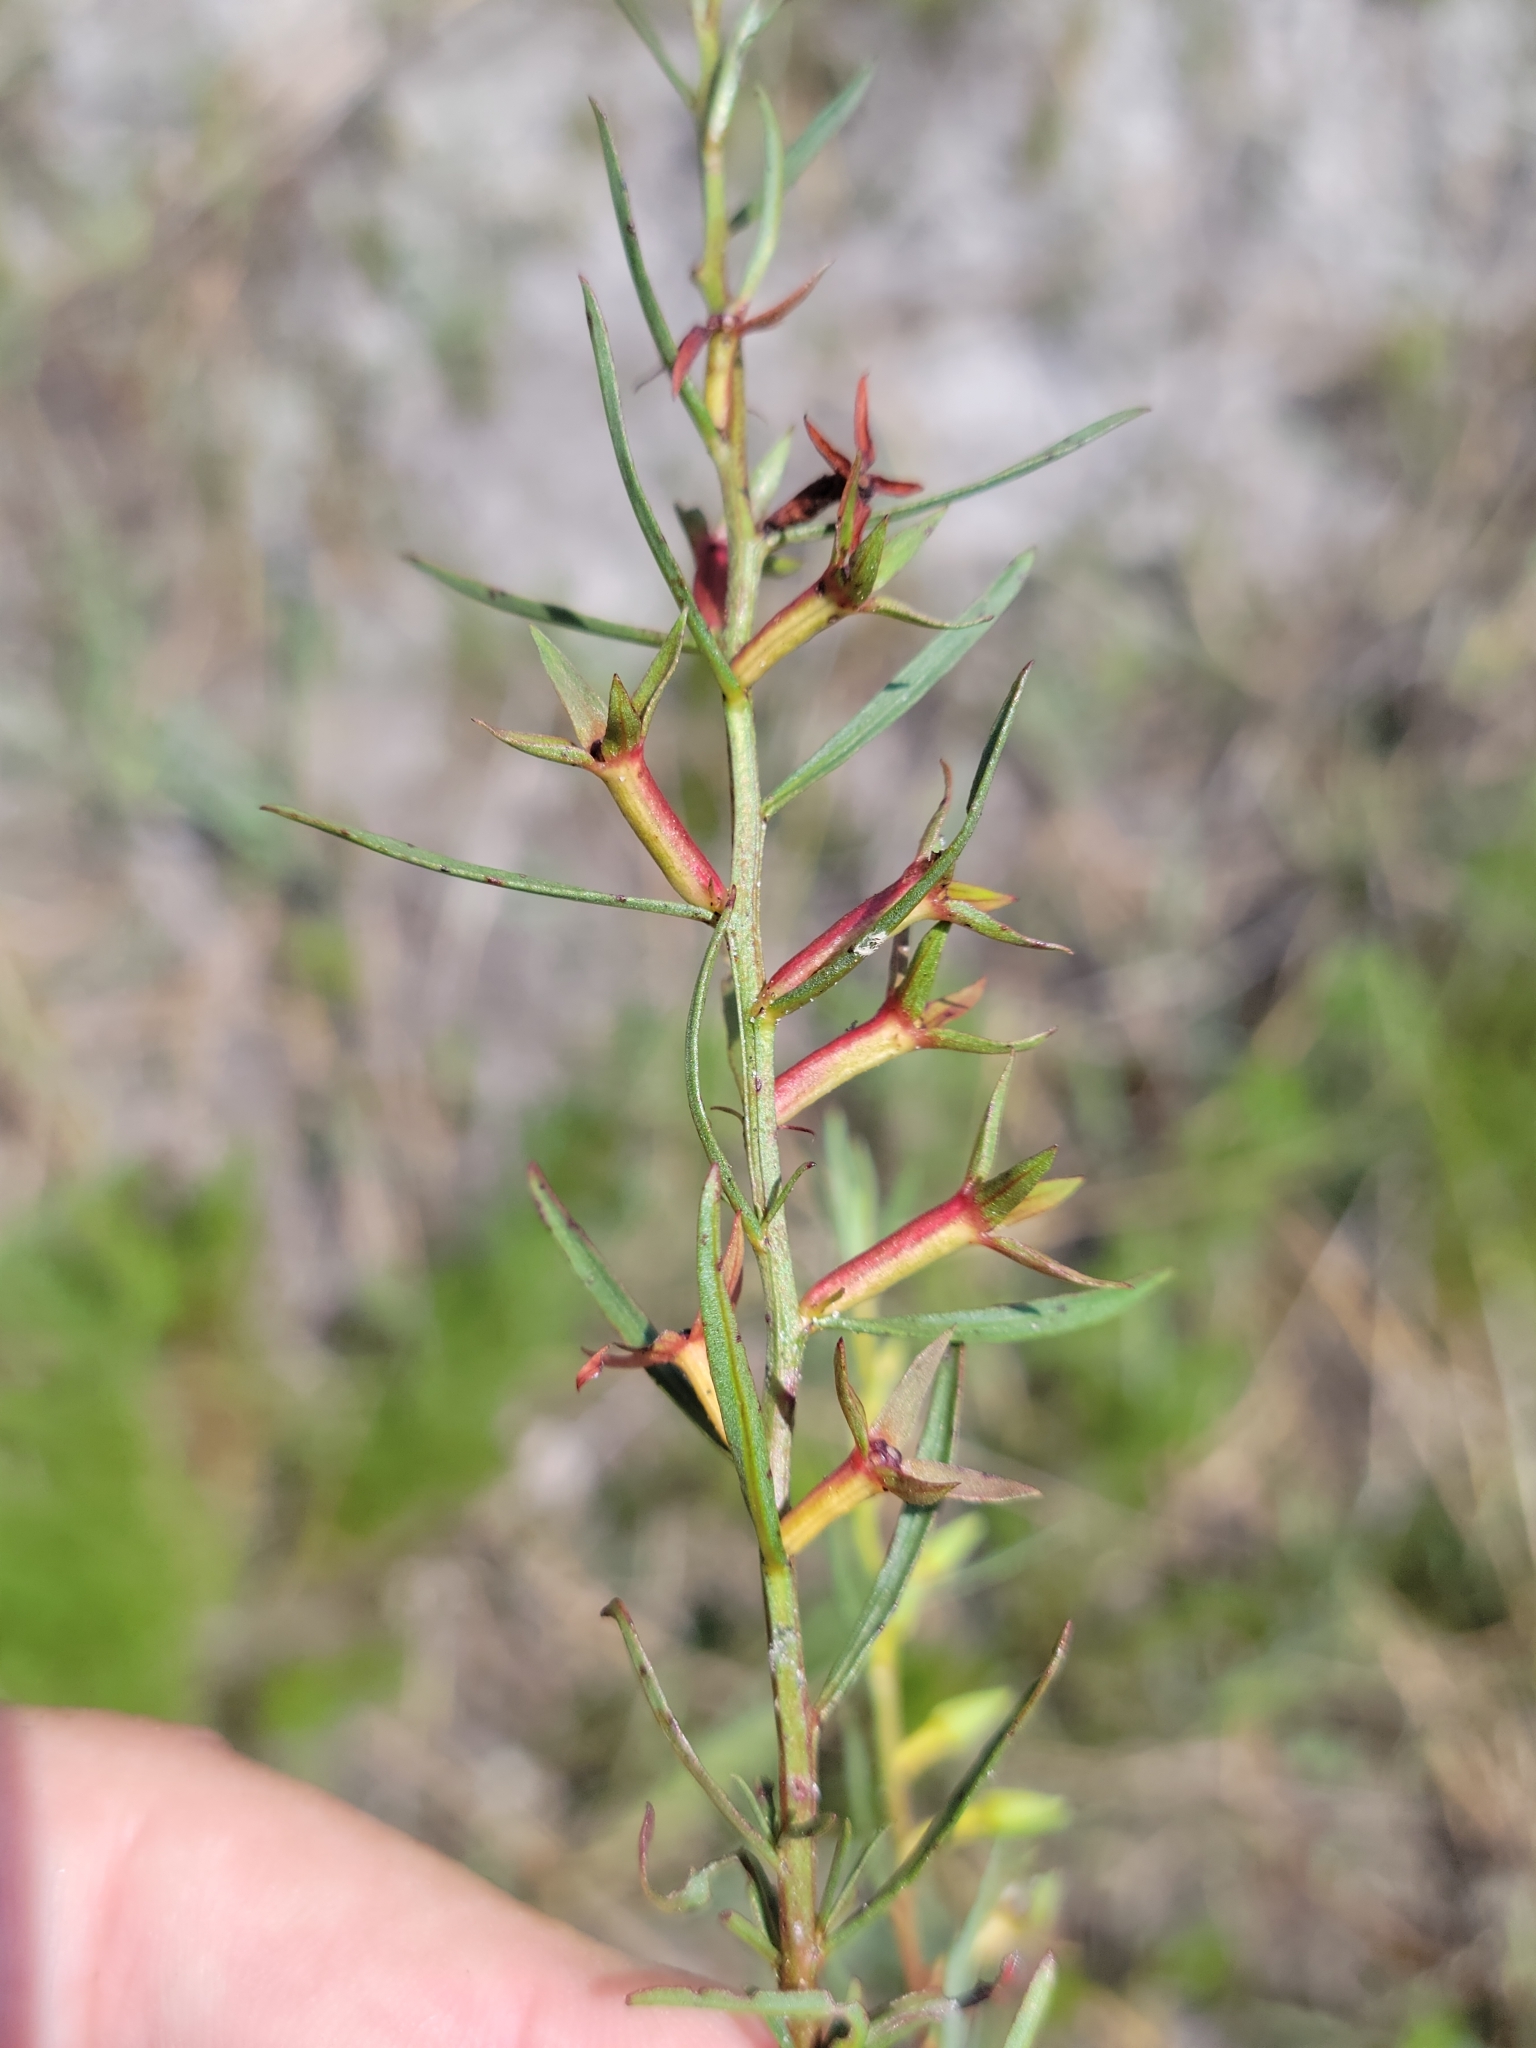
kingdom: Plantae
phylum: Tracheophyta
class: Magnoliopsida
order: Myrtales
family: Onagraceae
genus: Ludwigia
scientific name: Ludwigia linifolia
